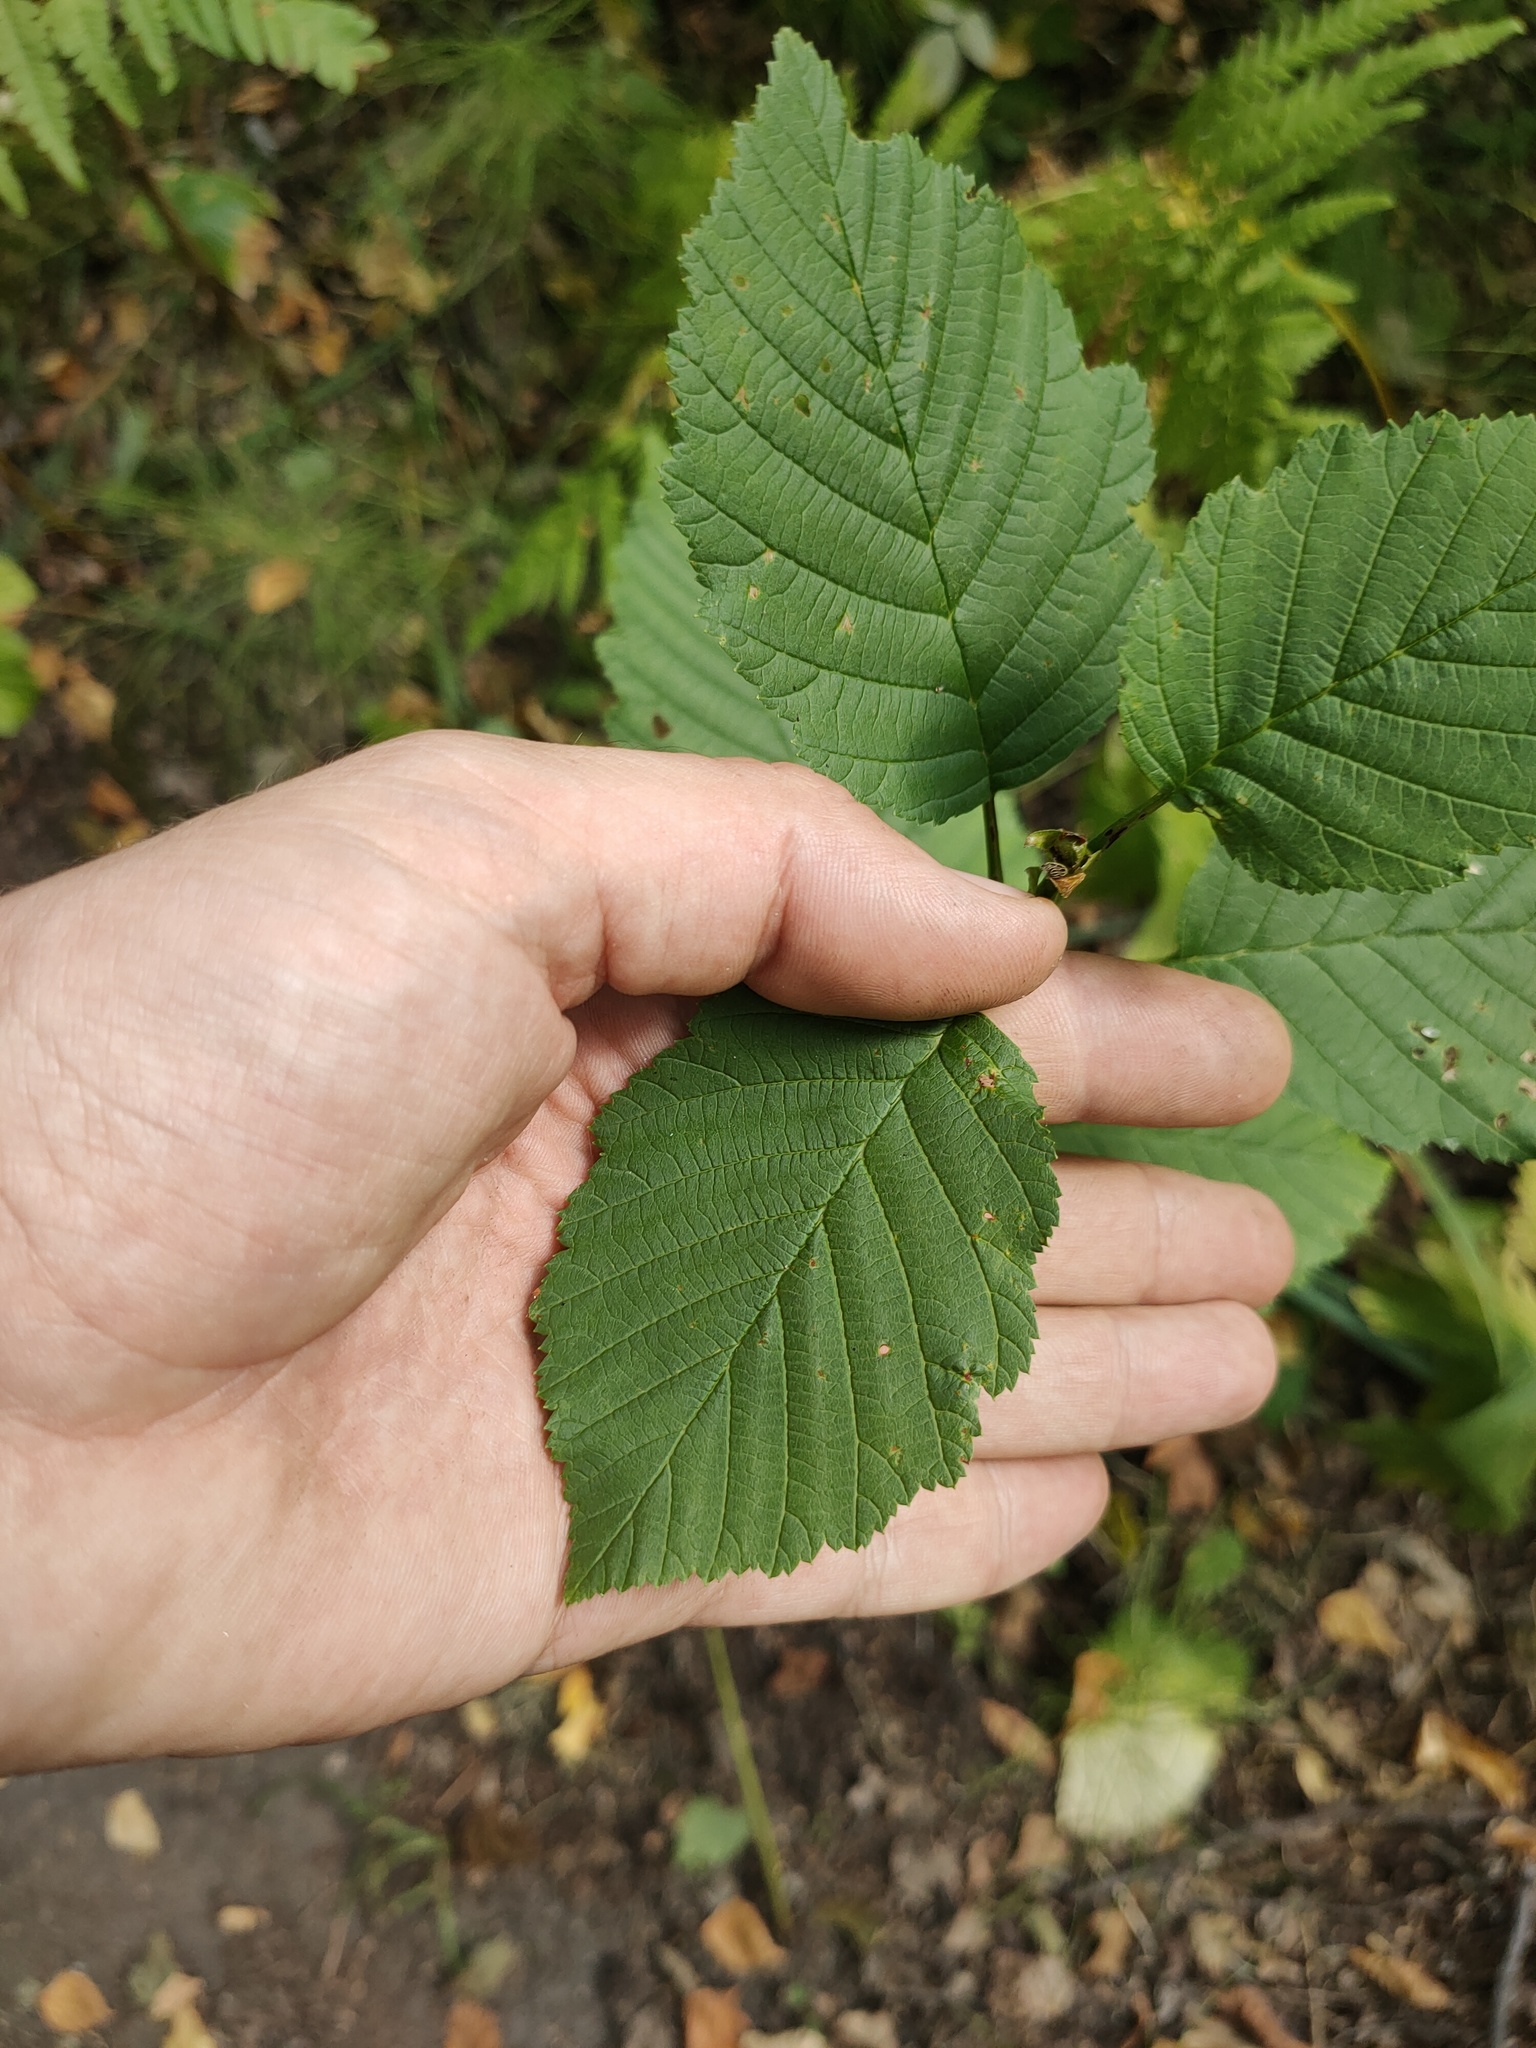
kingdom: Plantae
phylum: Tracheophyta
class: Magnoliopsida
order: Fagales
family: Betulaceae
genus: Alnus
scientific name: Alnus incana
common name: Grey alder
